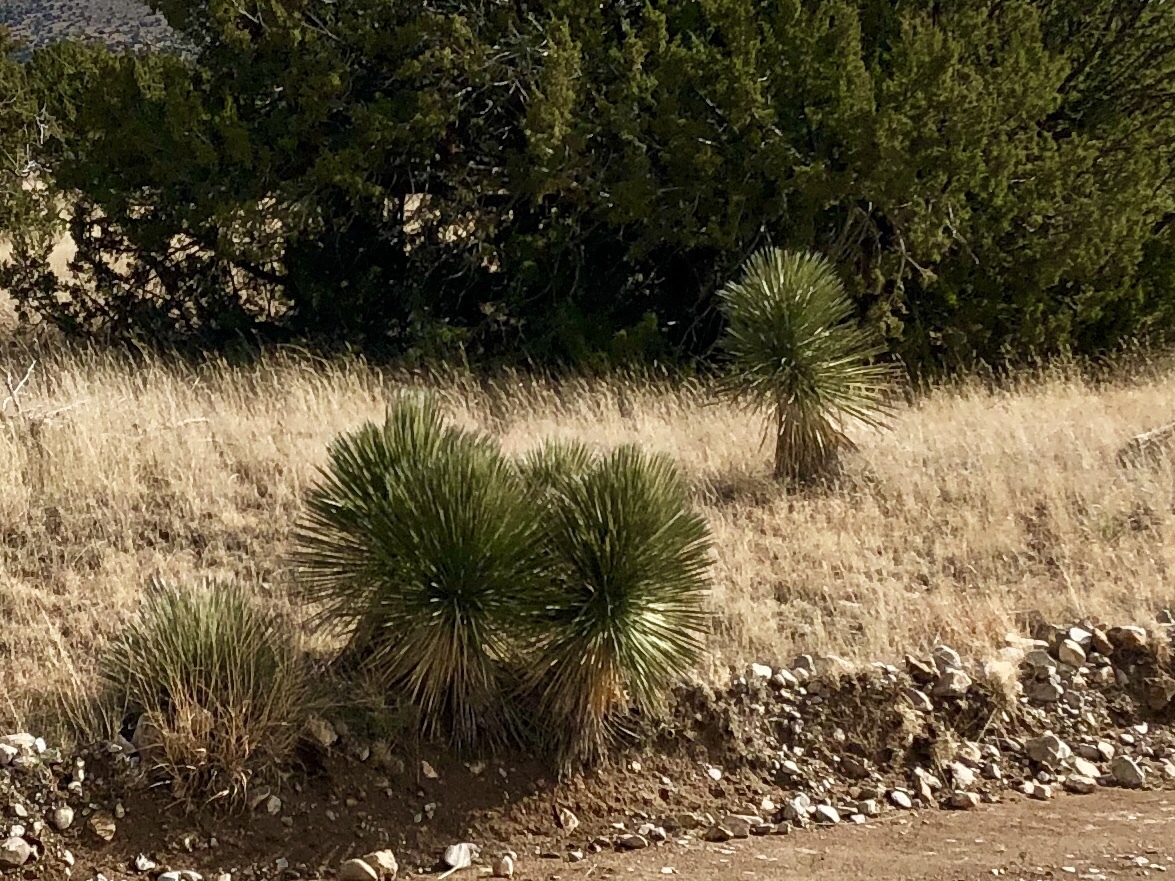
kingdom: Plantae
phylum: Tracheophyta
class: Liliopsida
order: Asparagales
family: Asparagaceae
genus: Yucca
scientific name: Yucca elata
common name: Palmella
